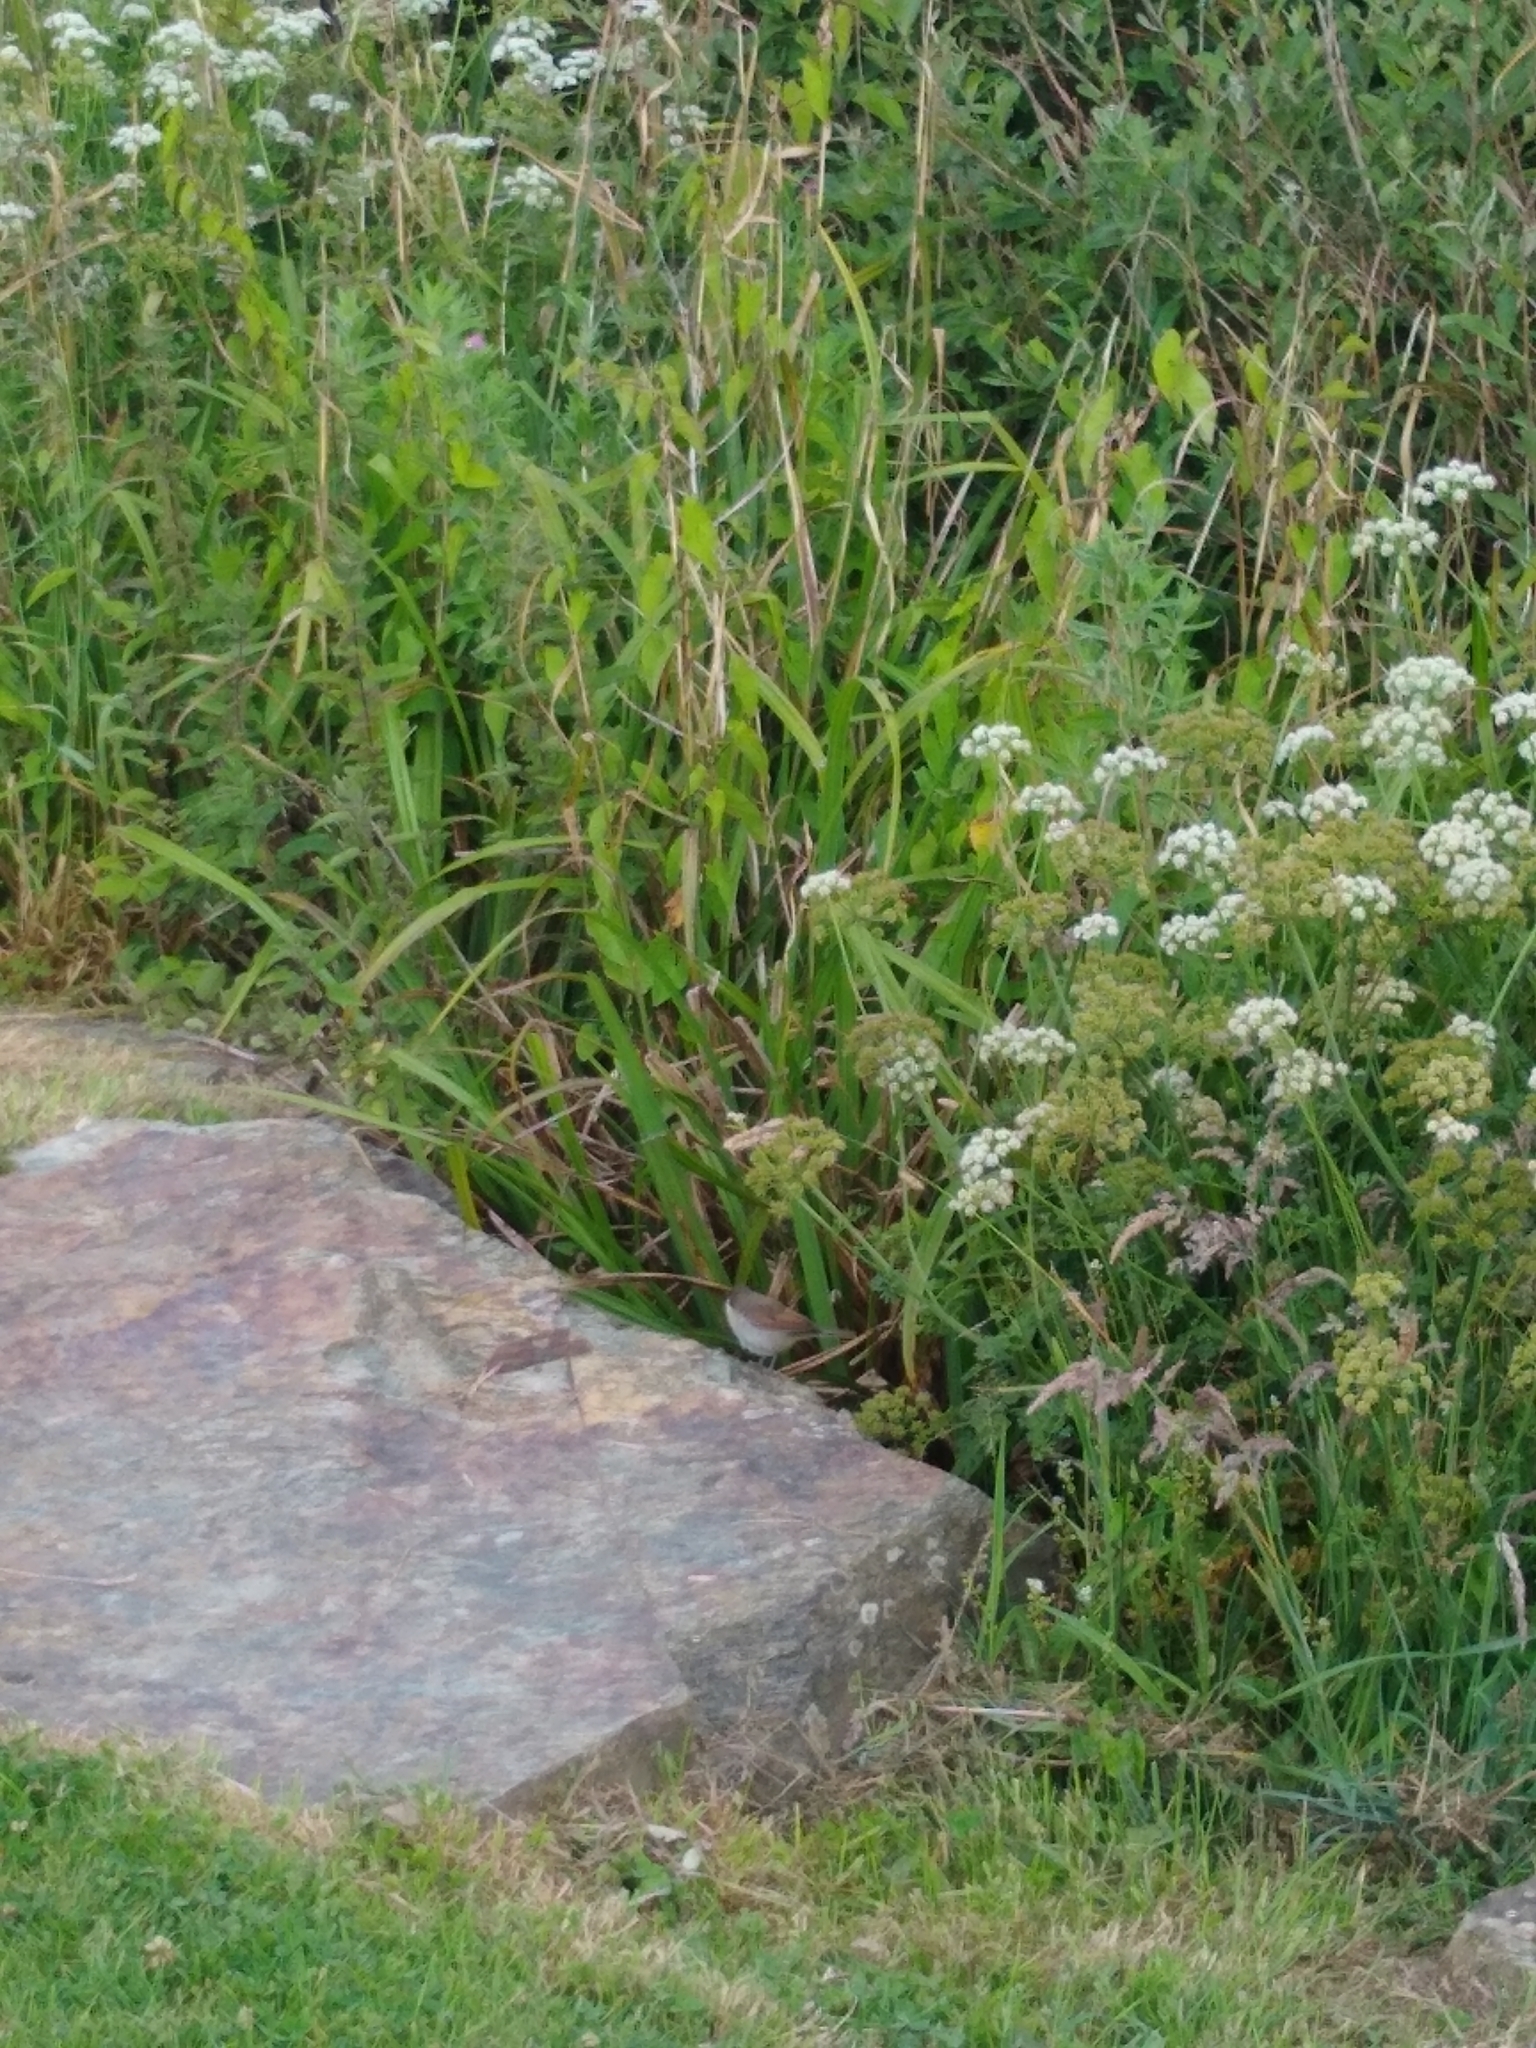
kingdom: Animalia
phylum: Chordata
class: Aves
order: Passeriformes
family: Sylviidae
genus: Sylvia
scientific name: Sylvia communis
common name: Common whitethroat
